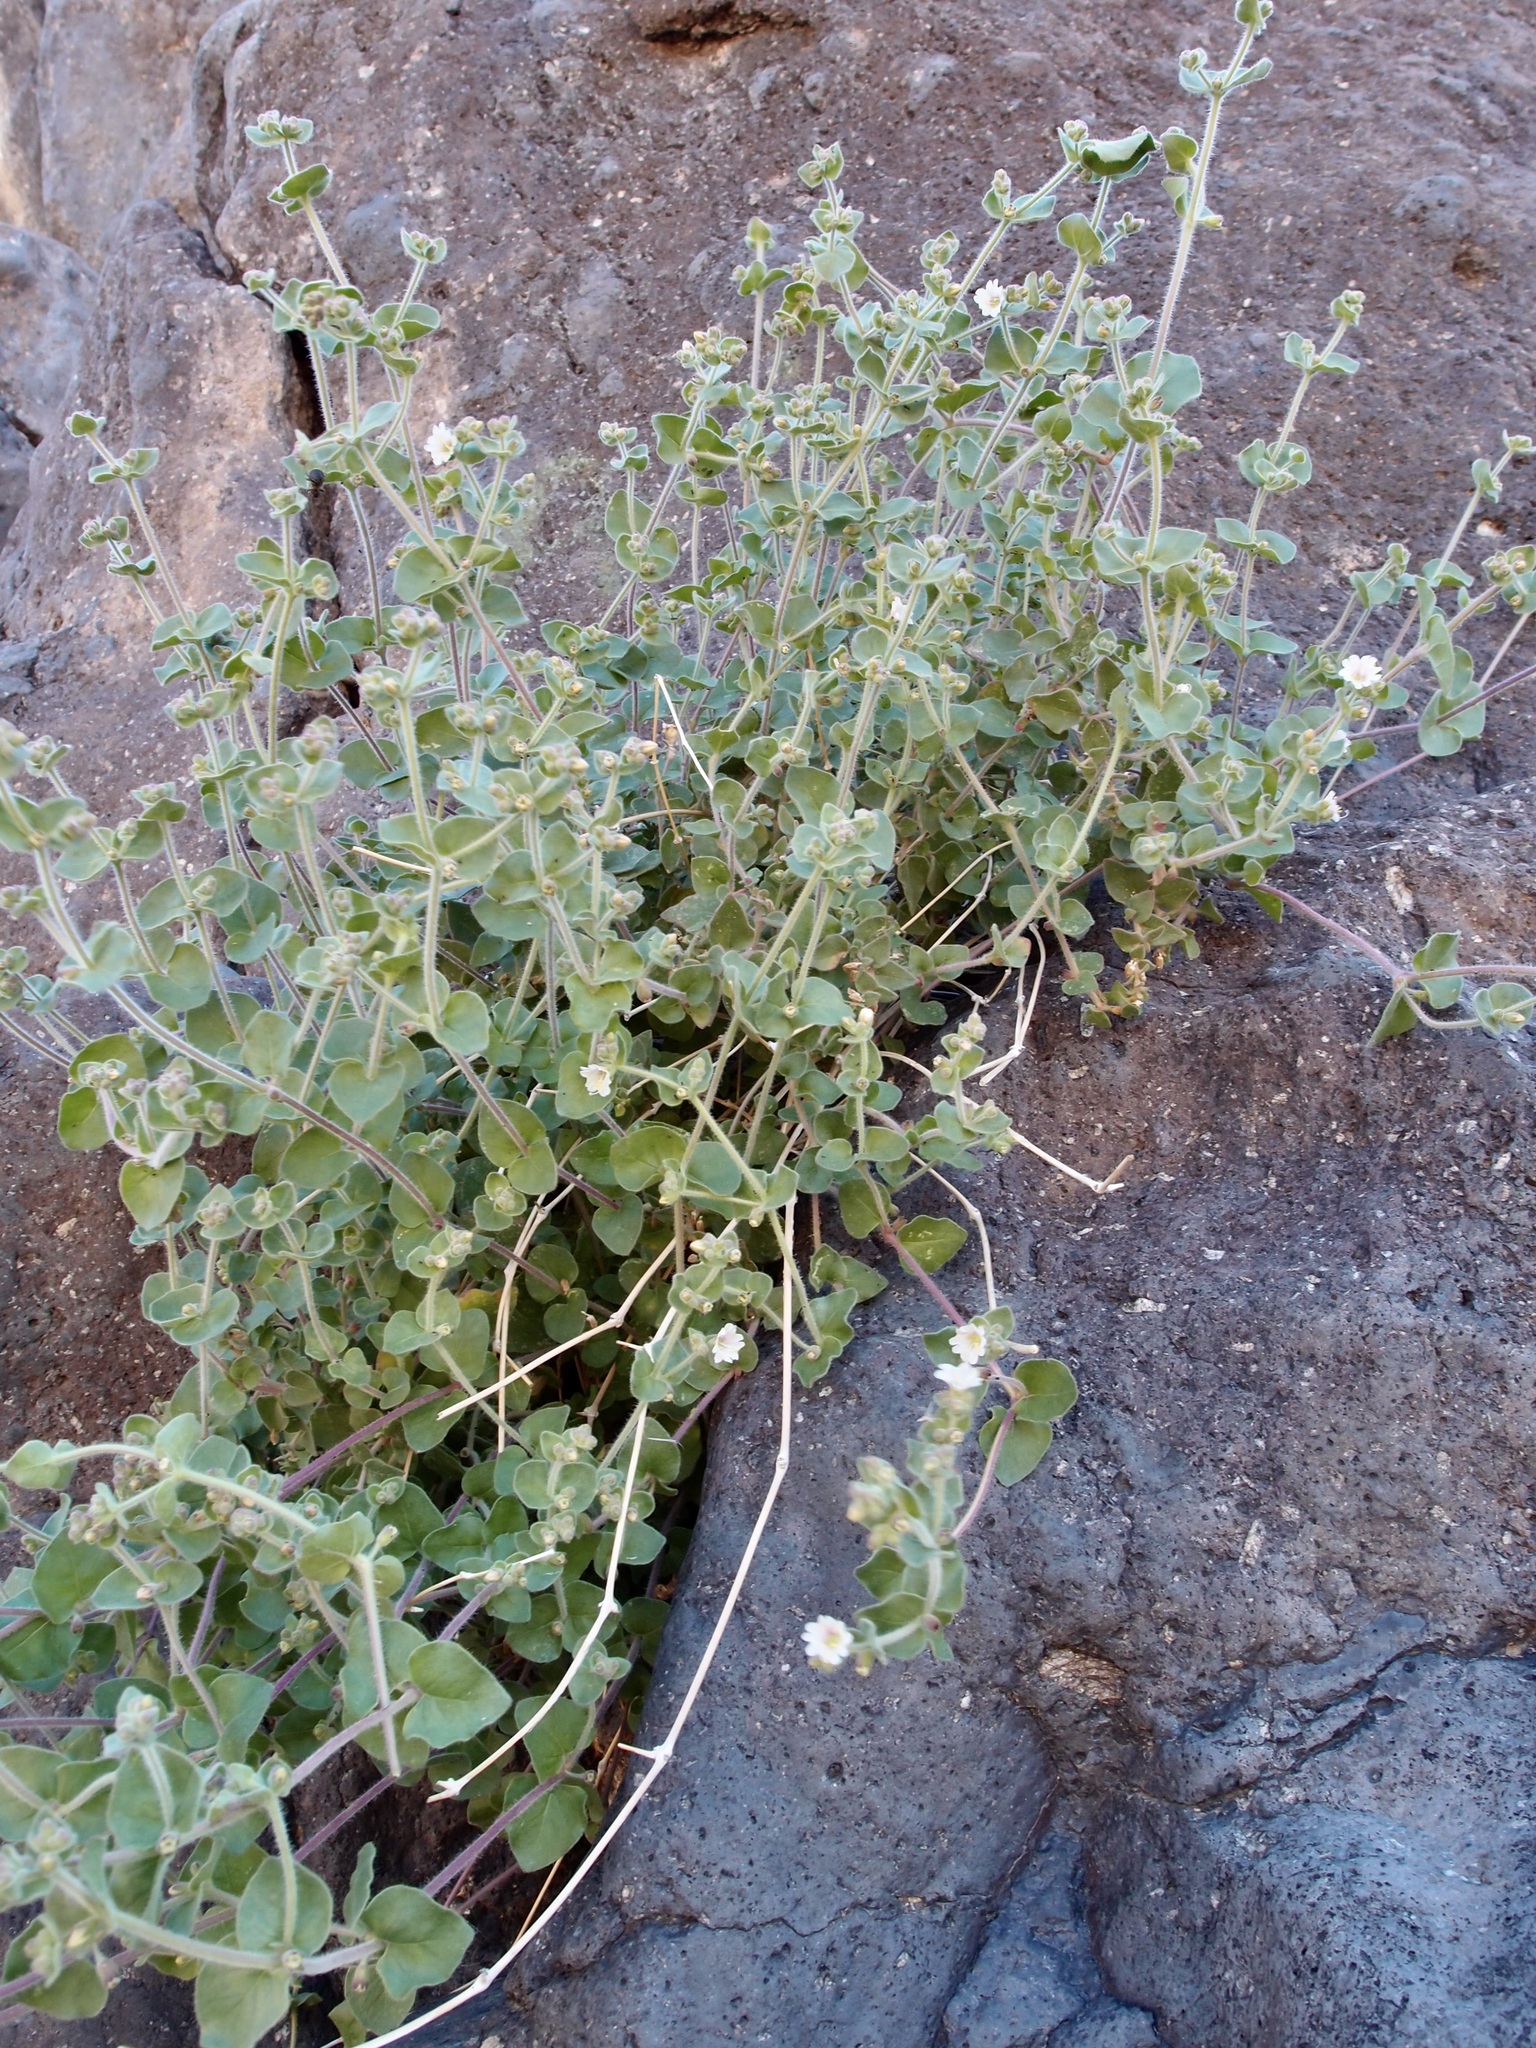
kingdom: Plantae
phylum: Tracheophyta
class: Magnoliopsida
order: Caryophyllales
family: Nyctaginaceae
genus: Mirabilis
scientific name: Mirabilis laevis
